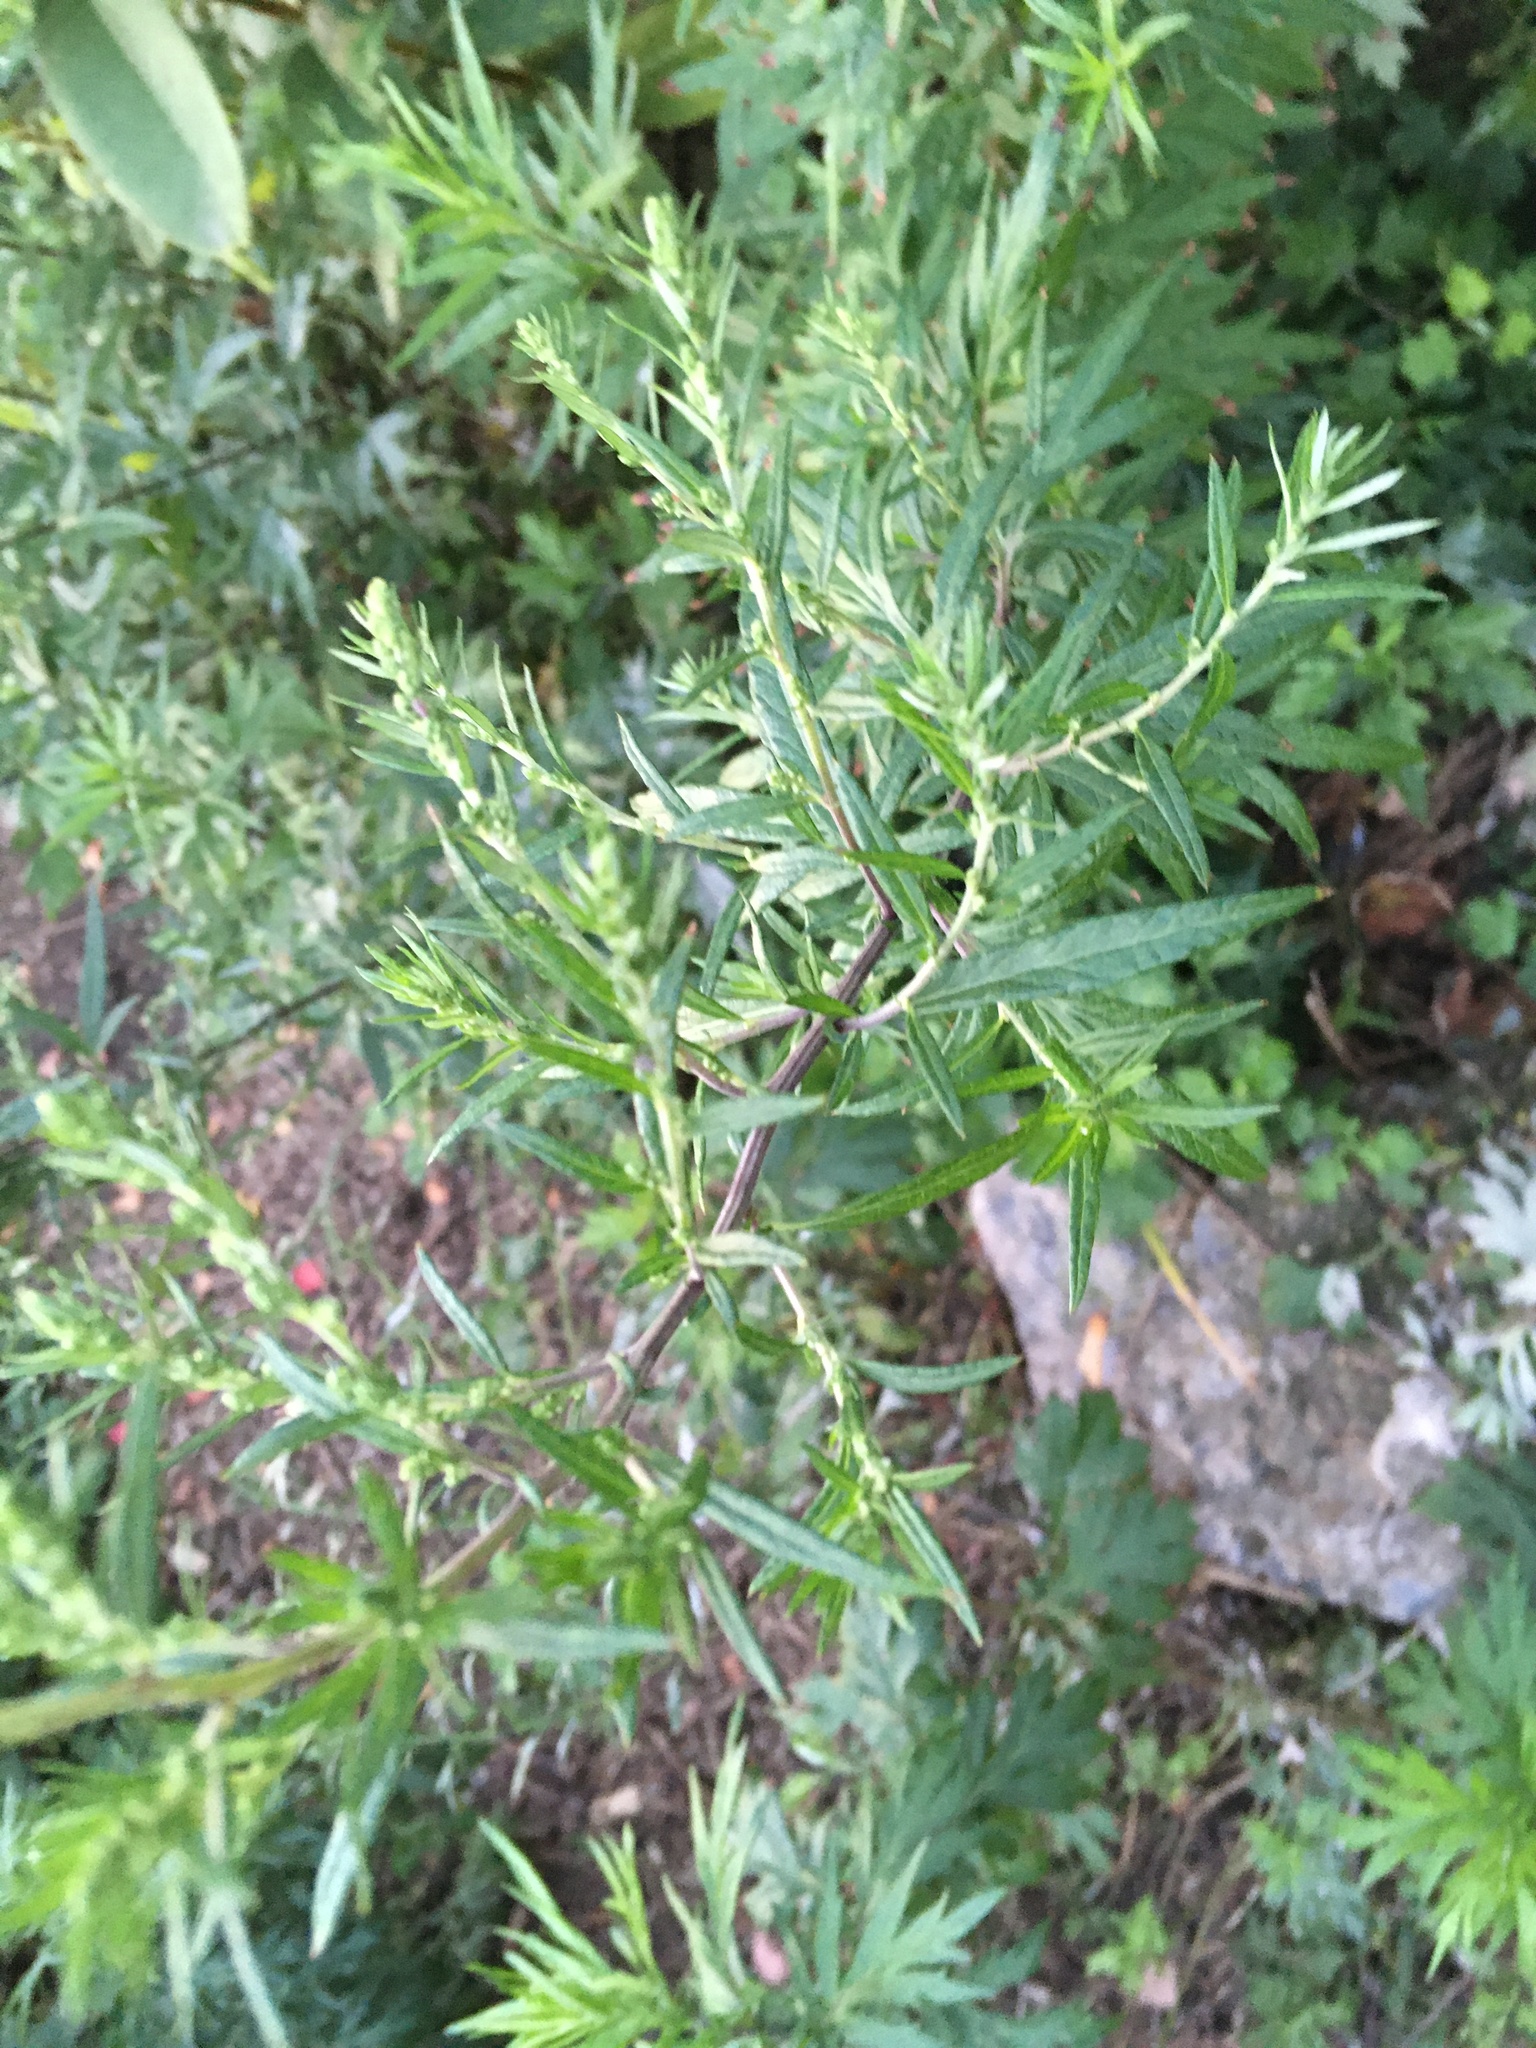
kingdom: Plantae
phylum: Tracheophyta
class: Magnoliopsida
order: Asterales
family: Asteraceae
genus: Artemisia
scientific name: Artemisia vulgaris
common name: Mugwort
